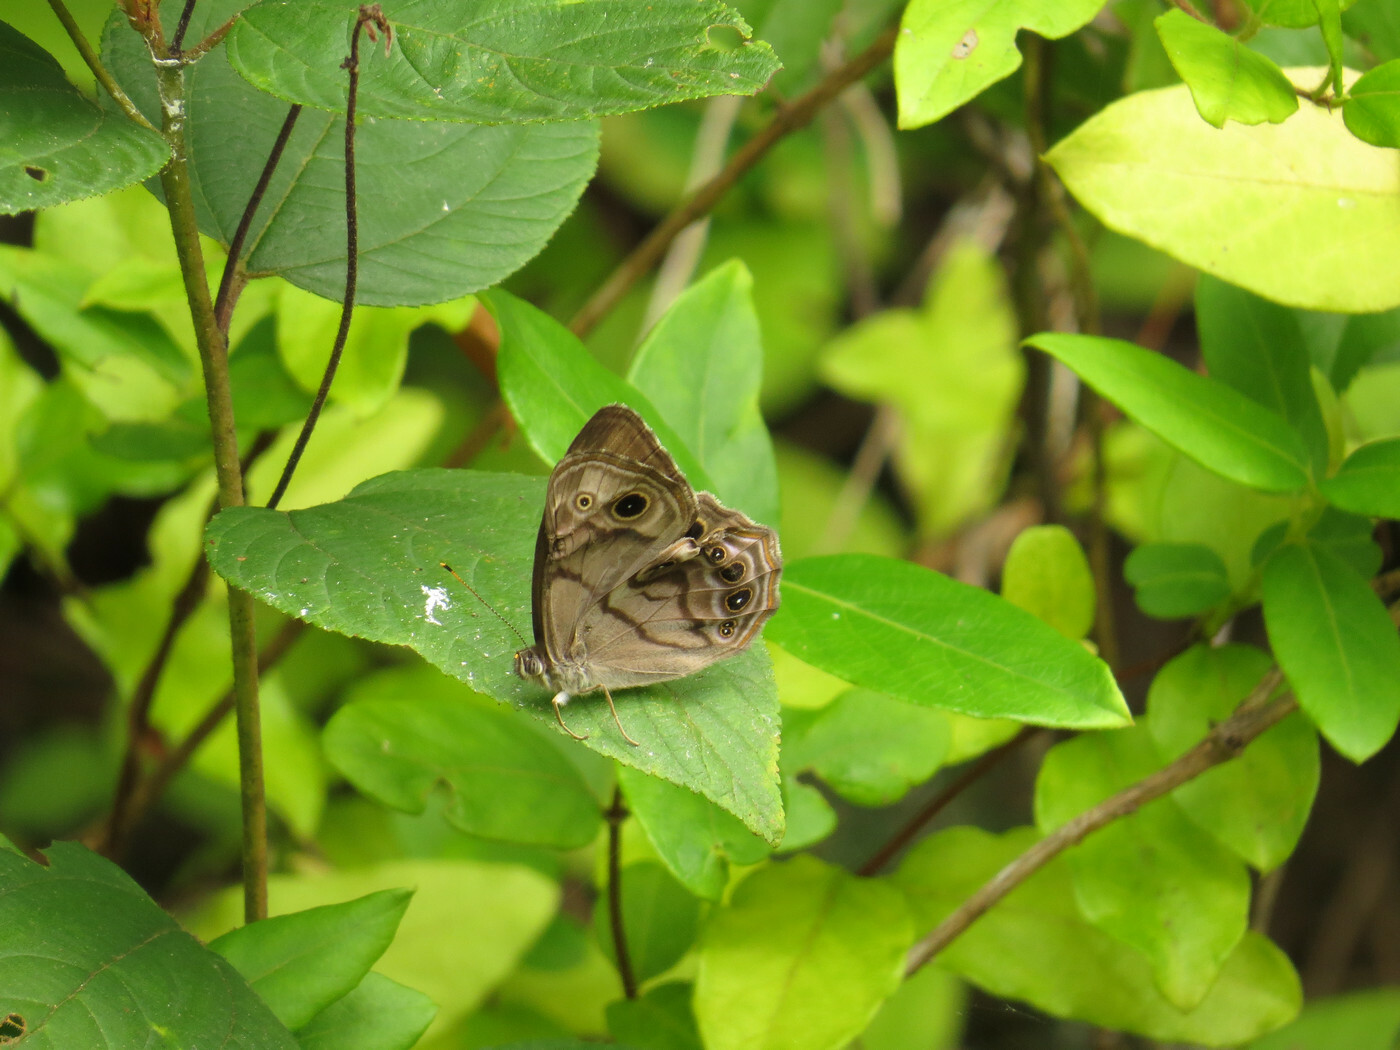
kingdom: Animalia
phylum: Arthropoda
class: Insecta
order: Lepidoptera
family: Nymphalidae
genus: Lethe
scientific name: Lethe anthedon
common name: Northern pearly-eye
